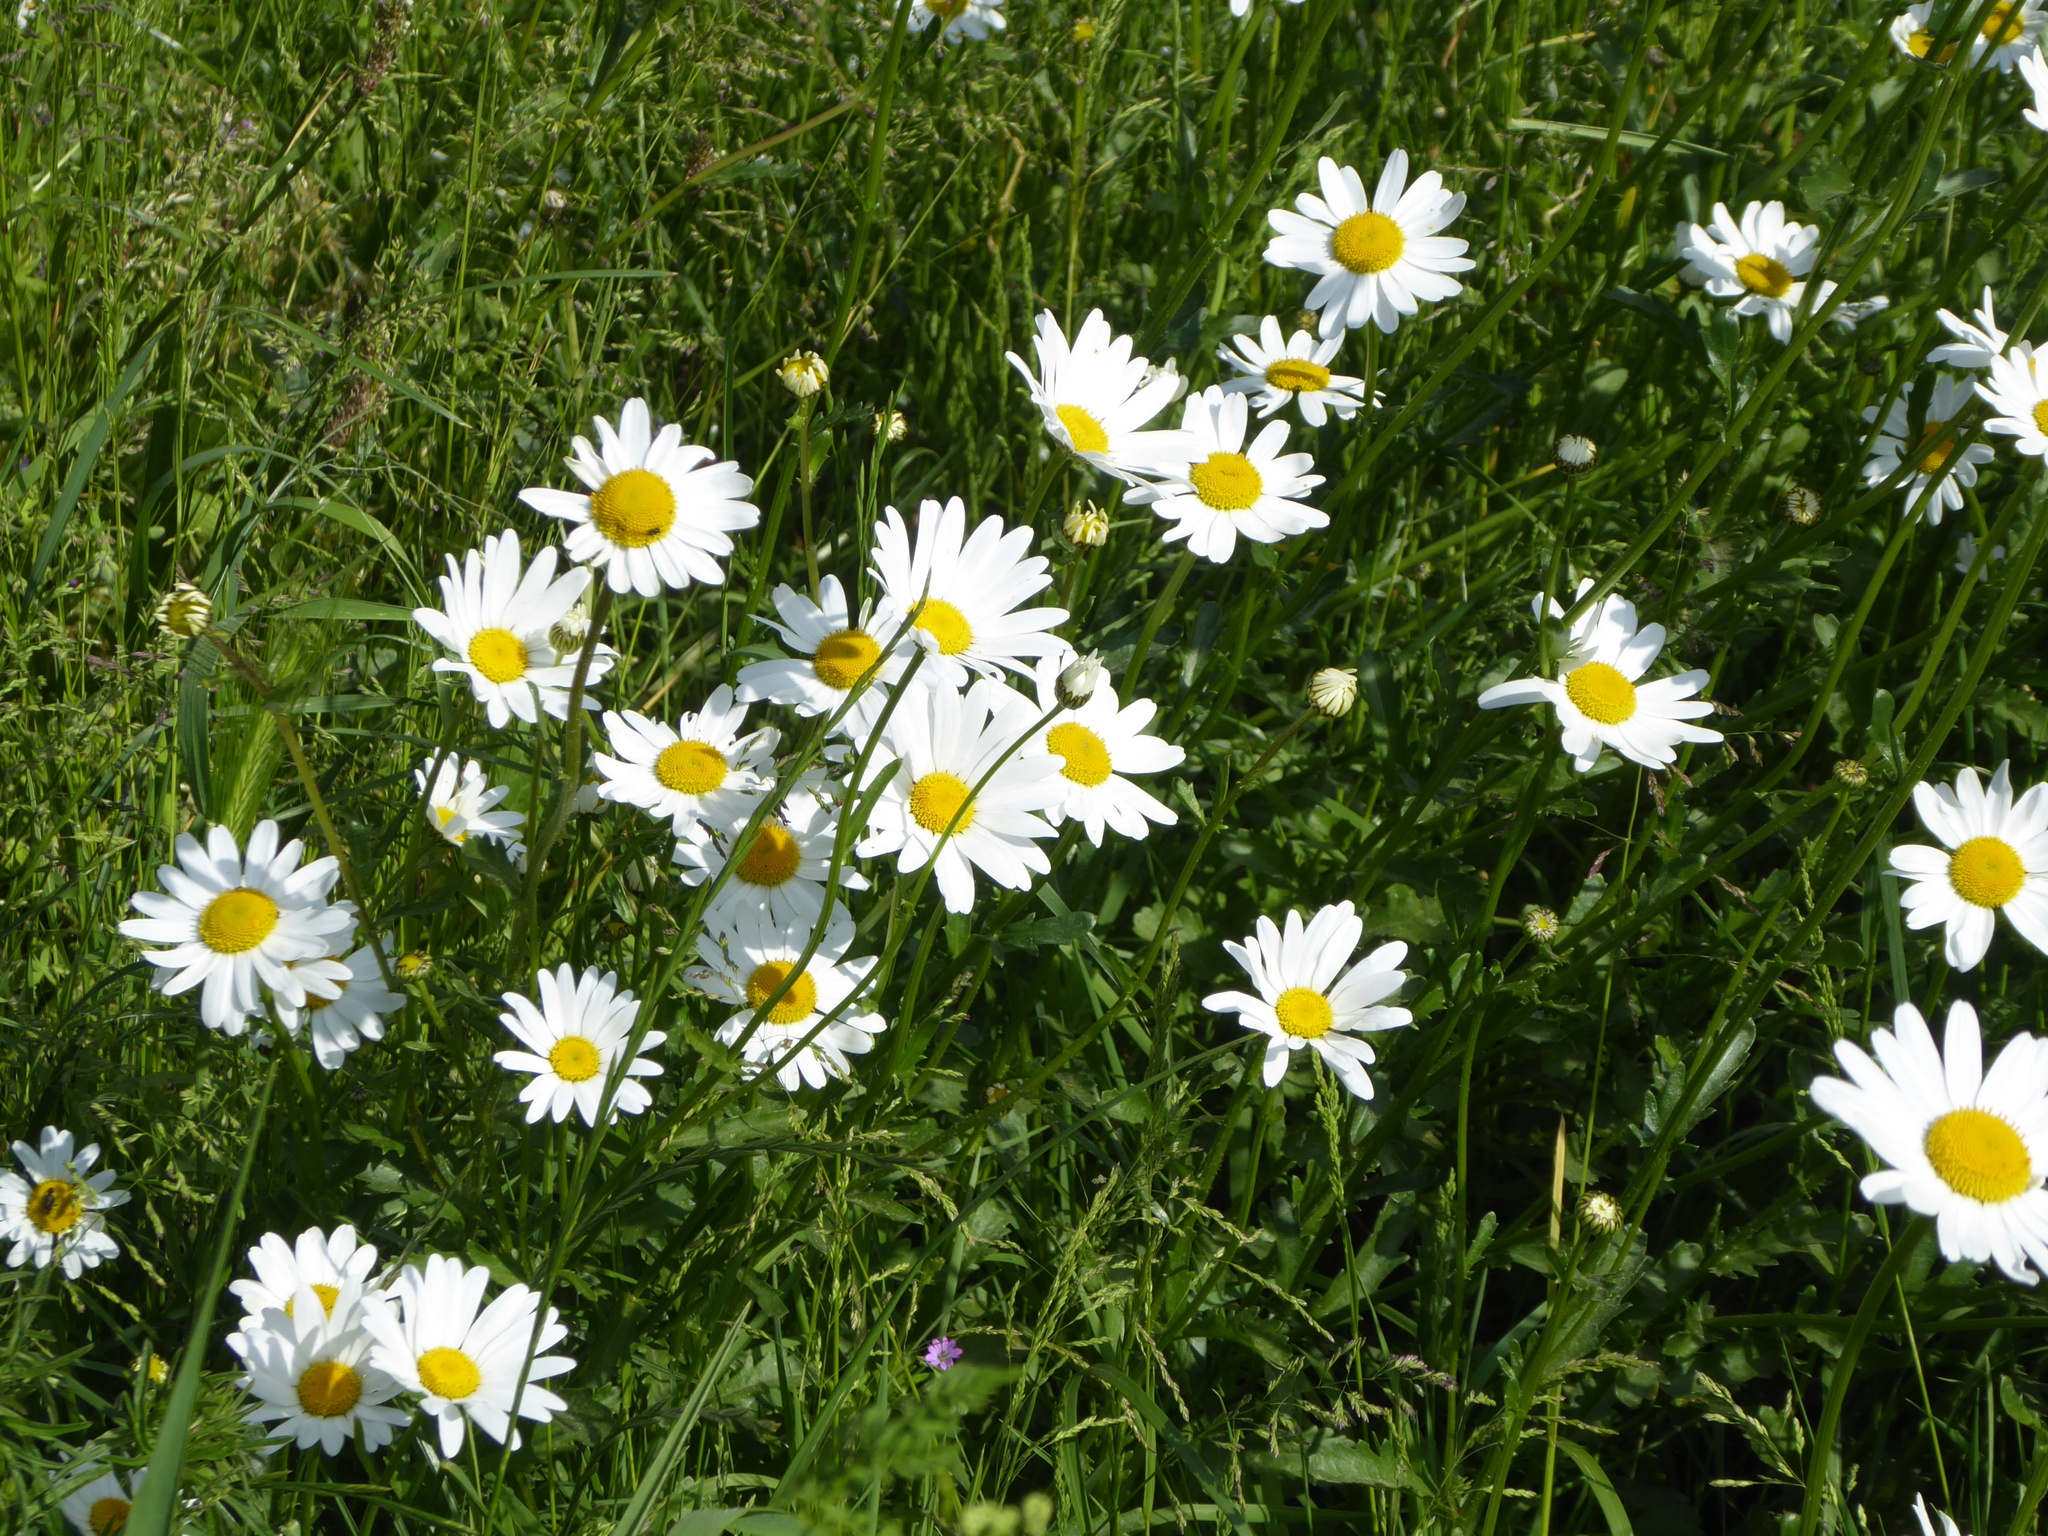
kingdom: Plantae
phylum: Tracheophyta
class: Magnoliopsida
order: Asterales
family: Asteraceae
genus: Leucanthemum
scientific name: Leucanthemum vulgare
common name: Oxeye daisy
